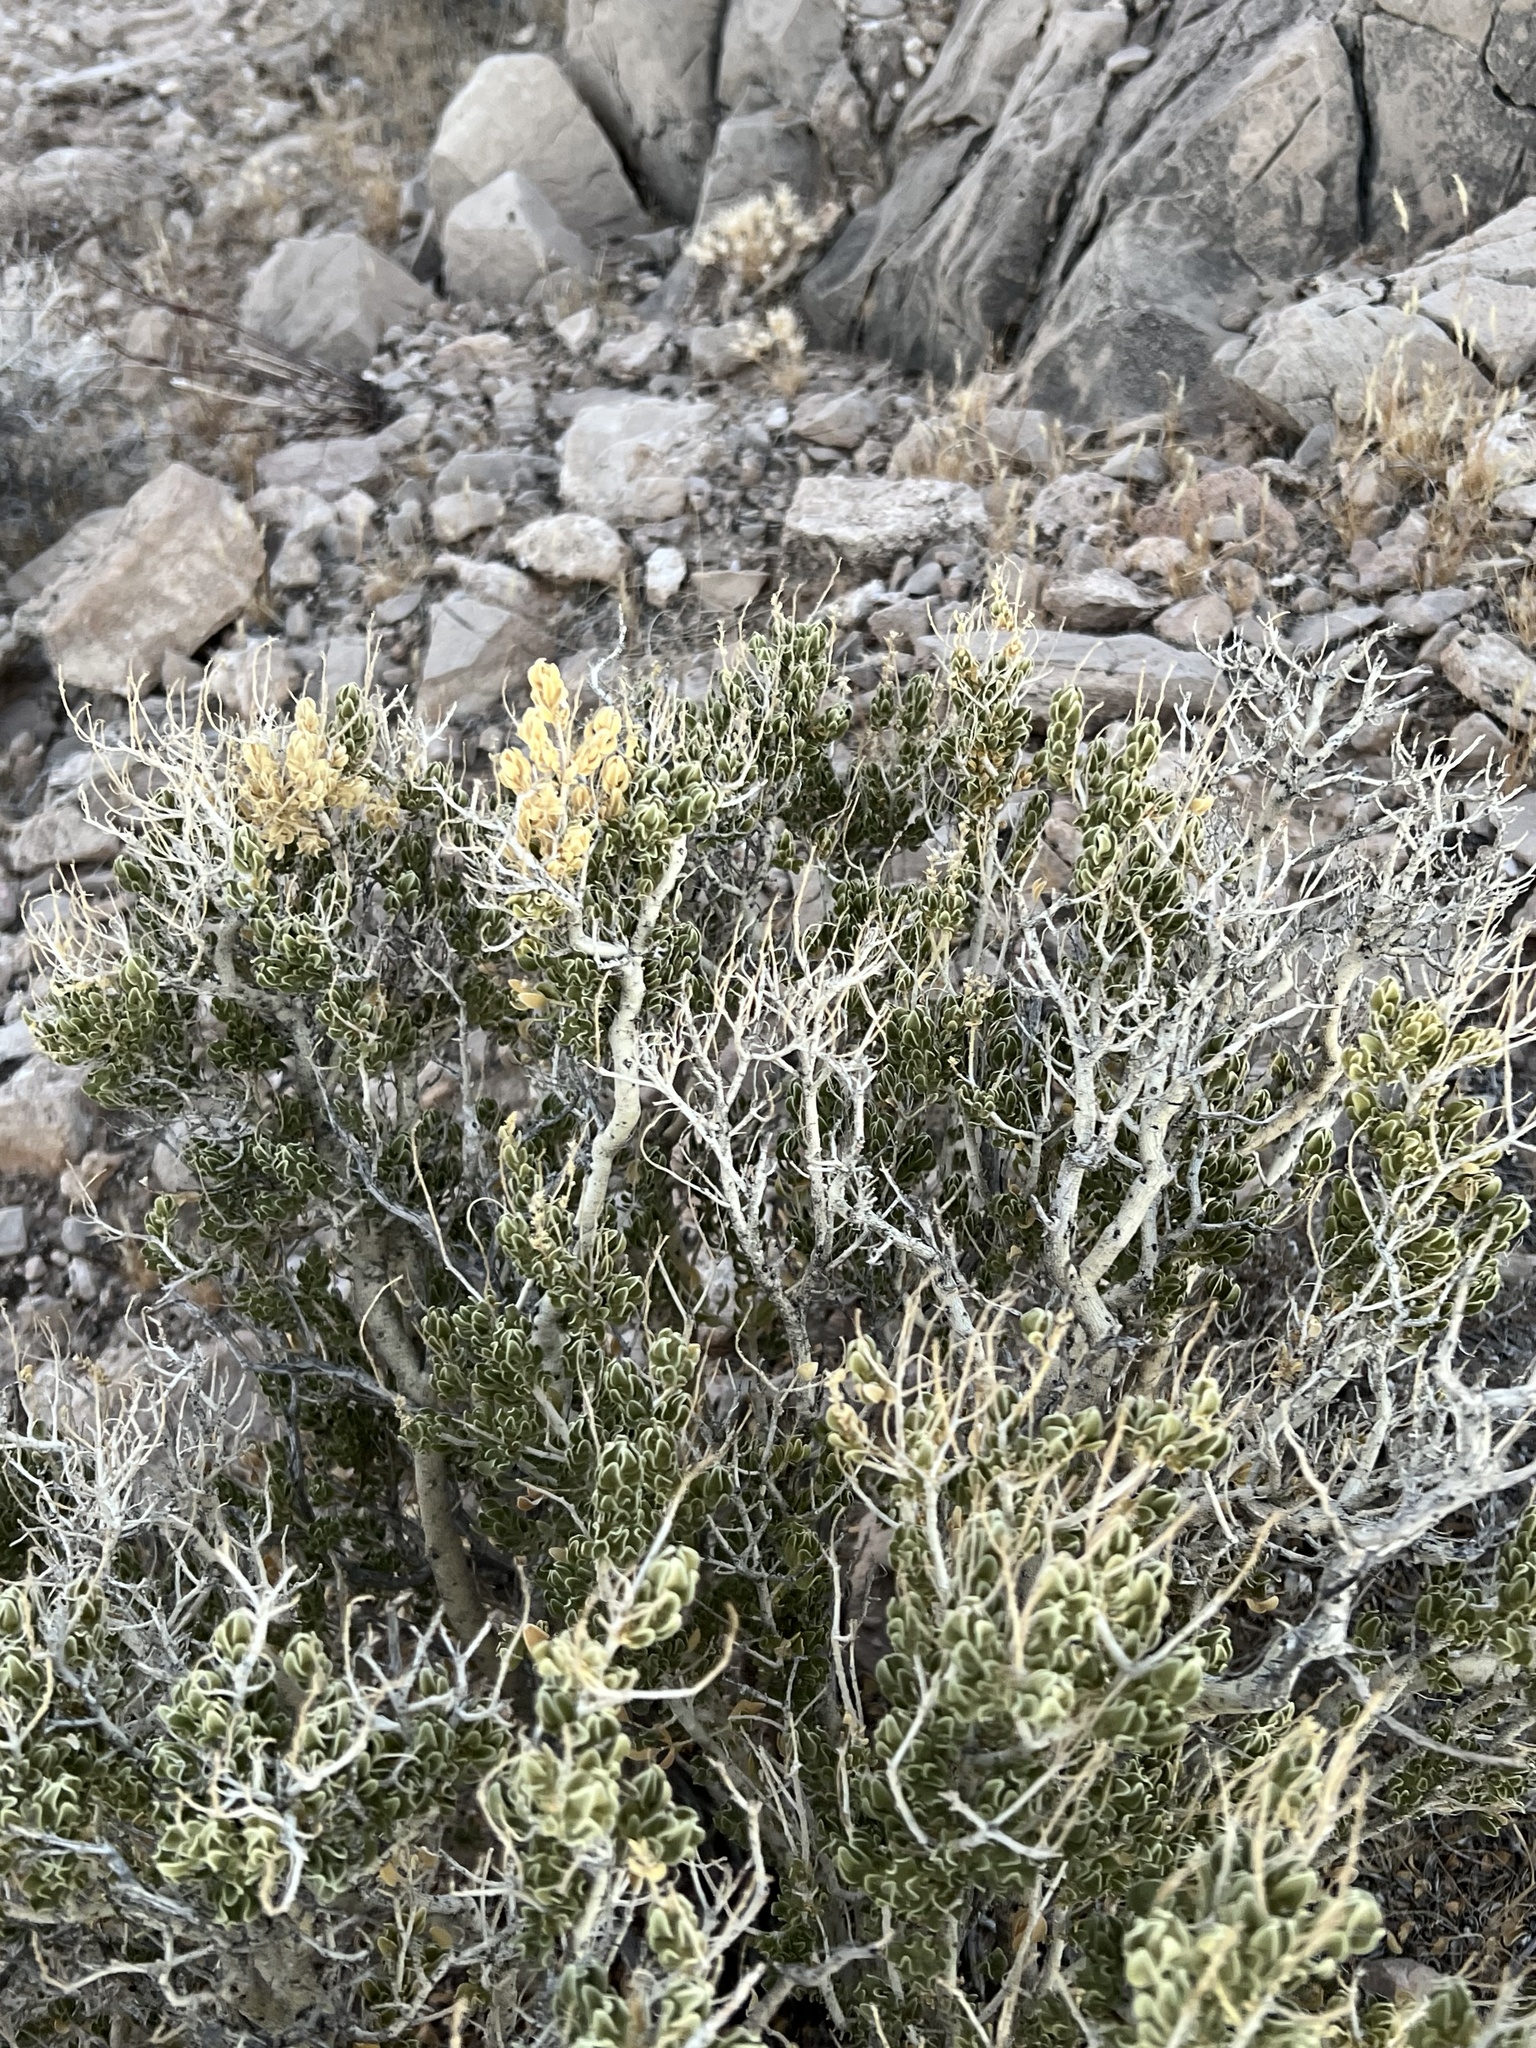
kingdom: Plantae
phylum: Tracheophyta
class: Magnoliopsida
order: Celastrales
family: Celastraceae
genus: Mortonia
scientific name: Mortonia utahensis
